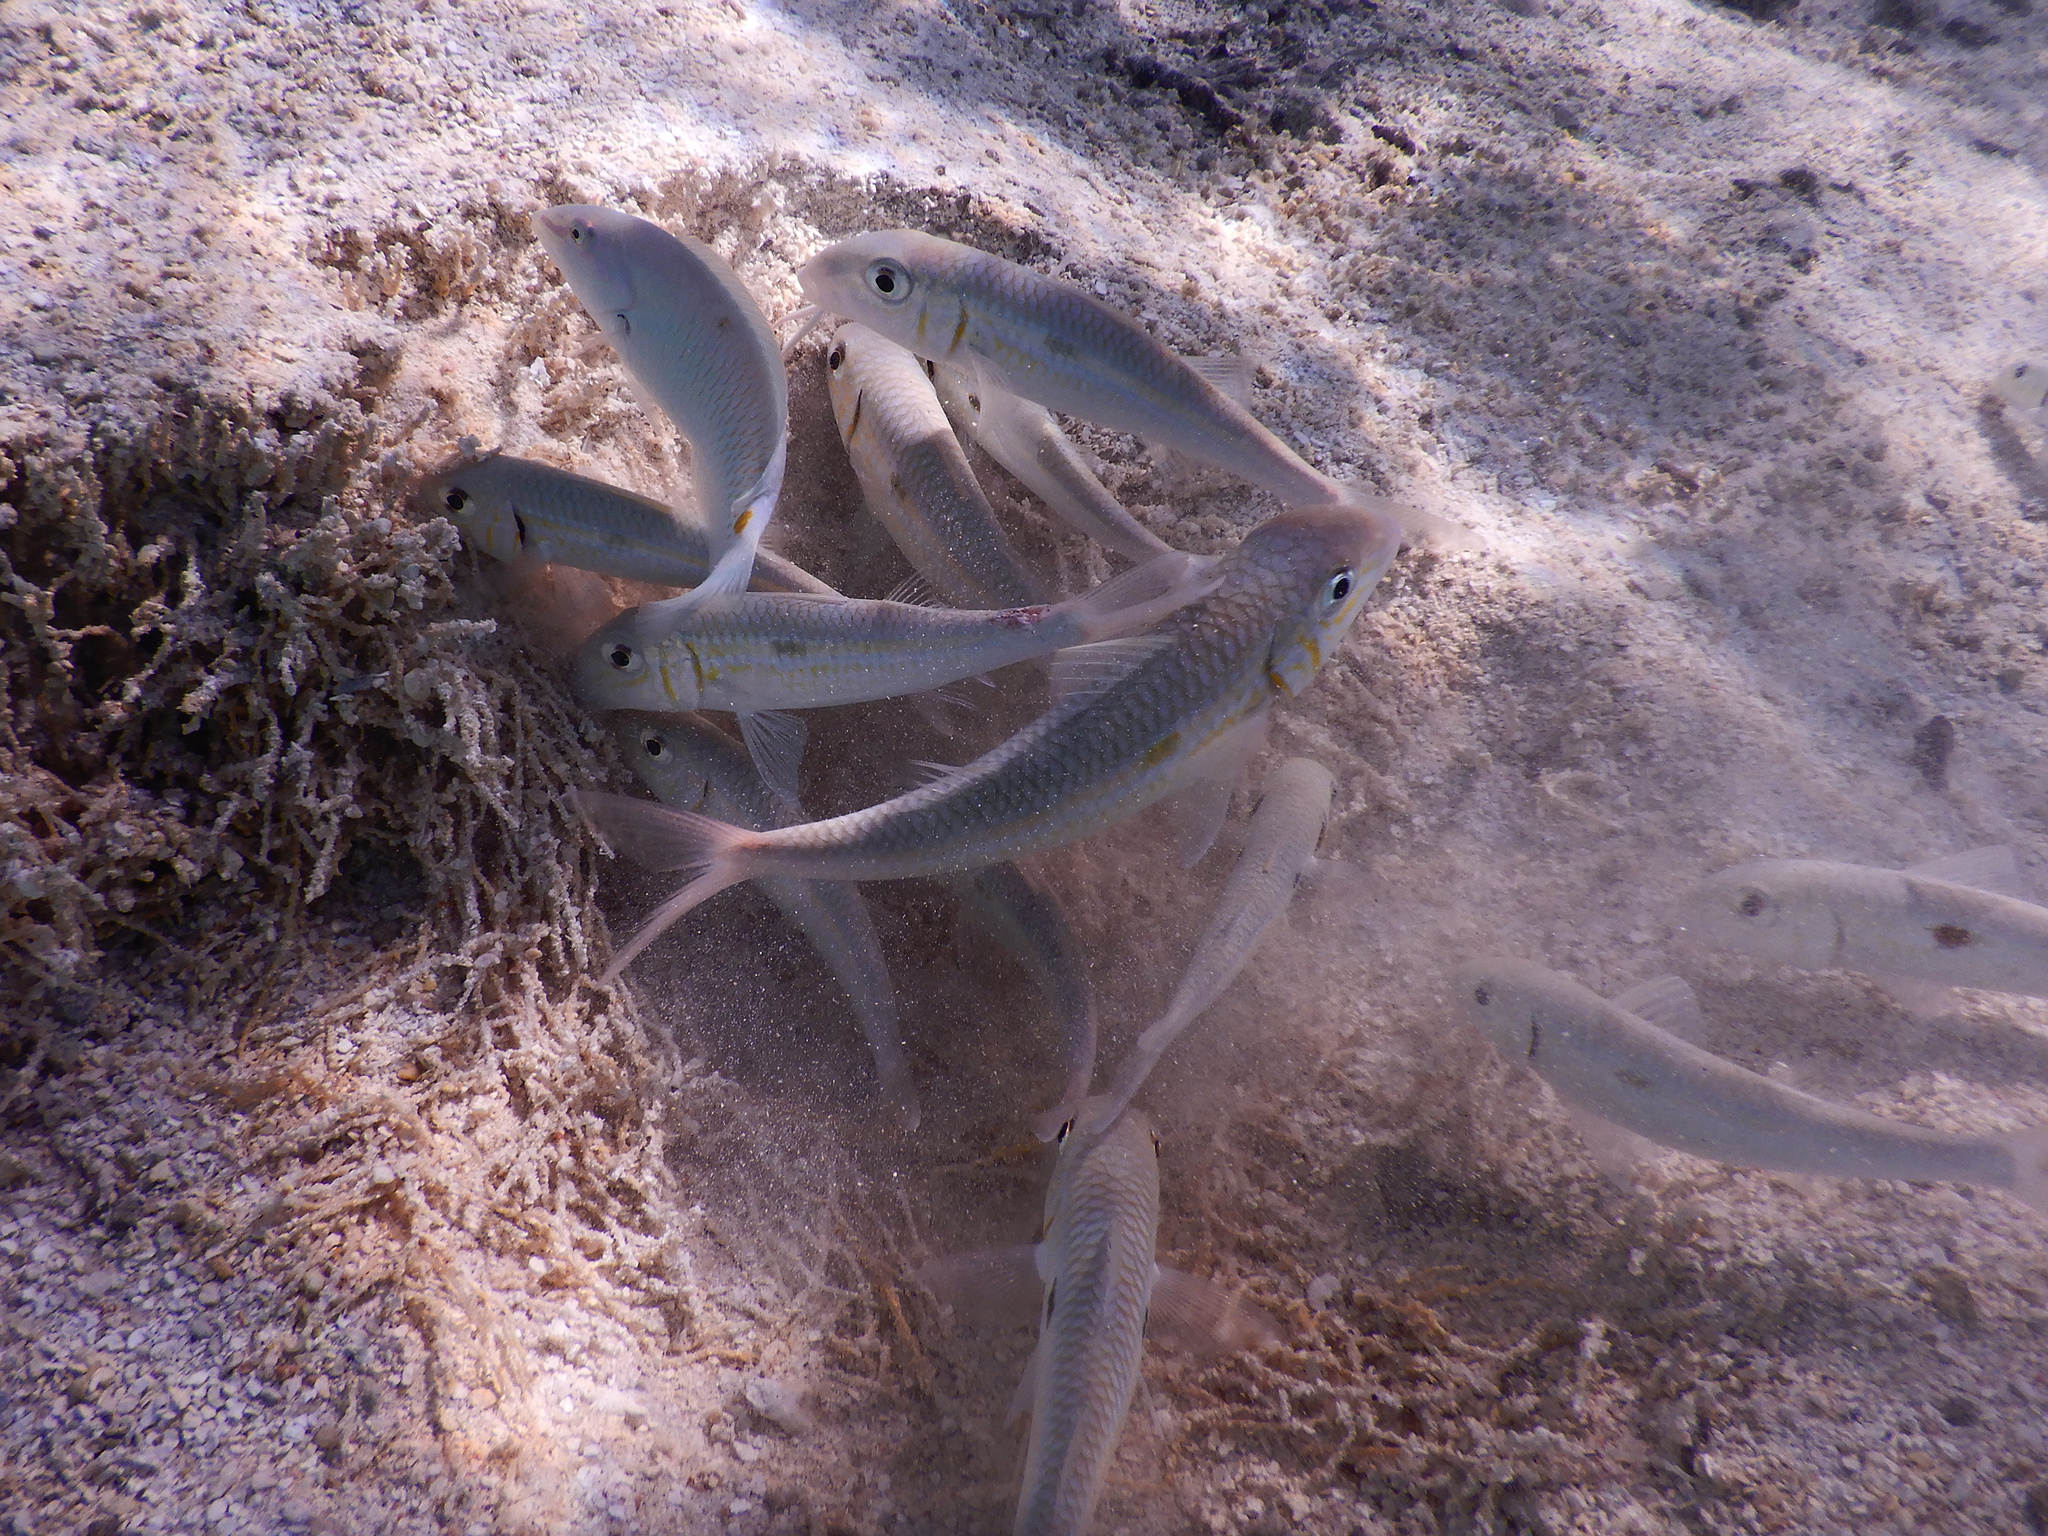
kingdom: Animalia
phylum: Chordata
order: Perciformes
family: Mullidae
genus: Mulloidichthys
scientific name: Mulloidichthys flavolineatus
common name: Yellowstripe goatfish
